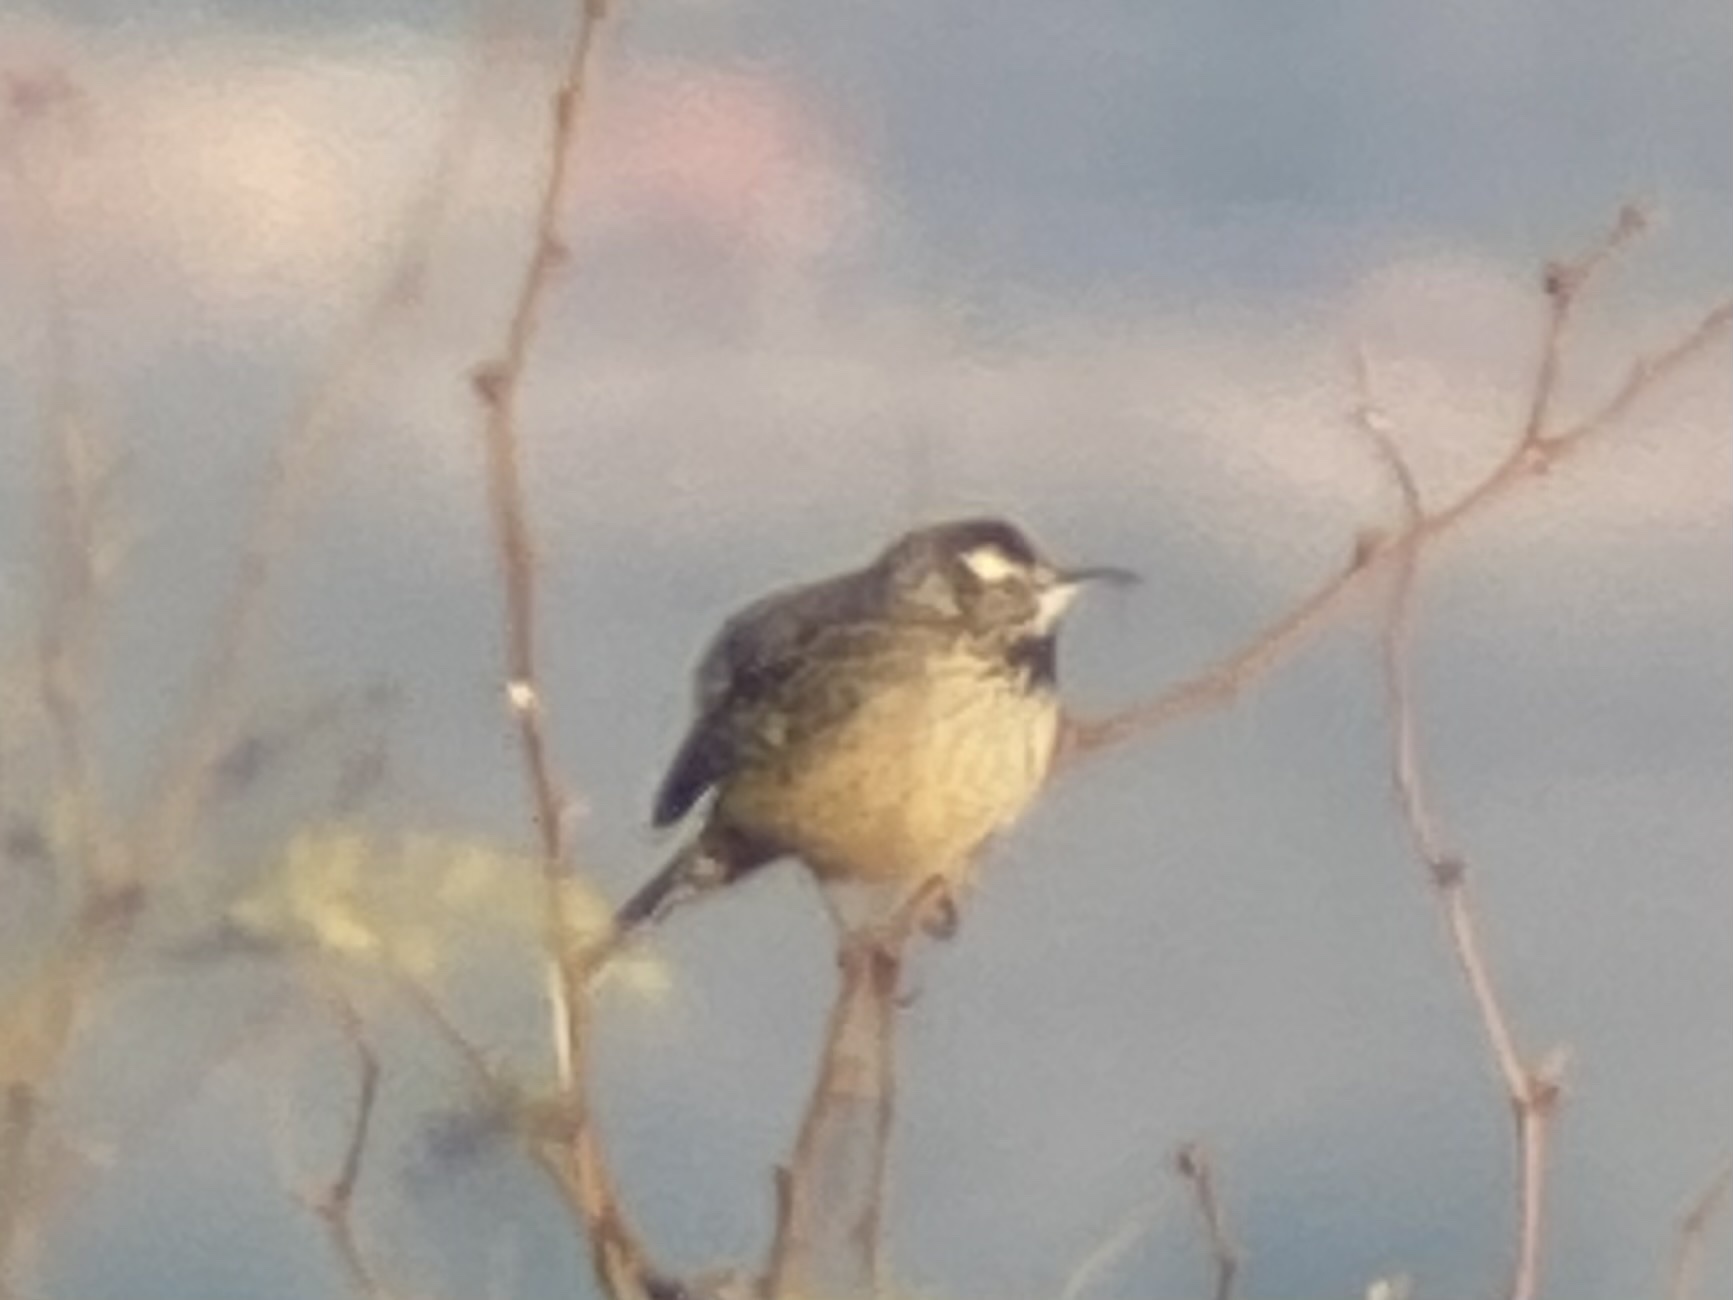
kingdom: Animalia
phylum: Chordata
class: Aves
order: Passeriformes
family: Troglodytidae
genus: Campylorhynchus
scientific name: Campylorhynchus brunneicapillus
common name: Cactus wren
